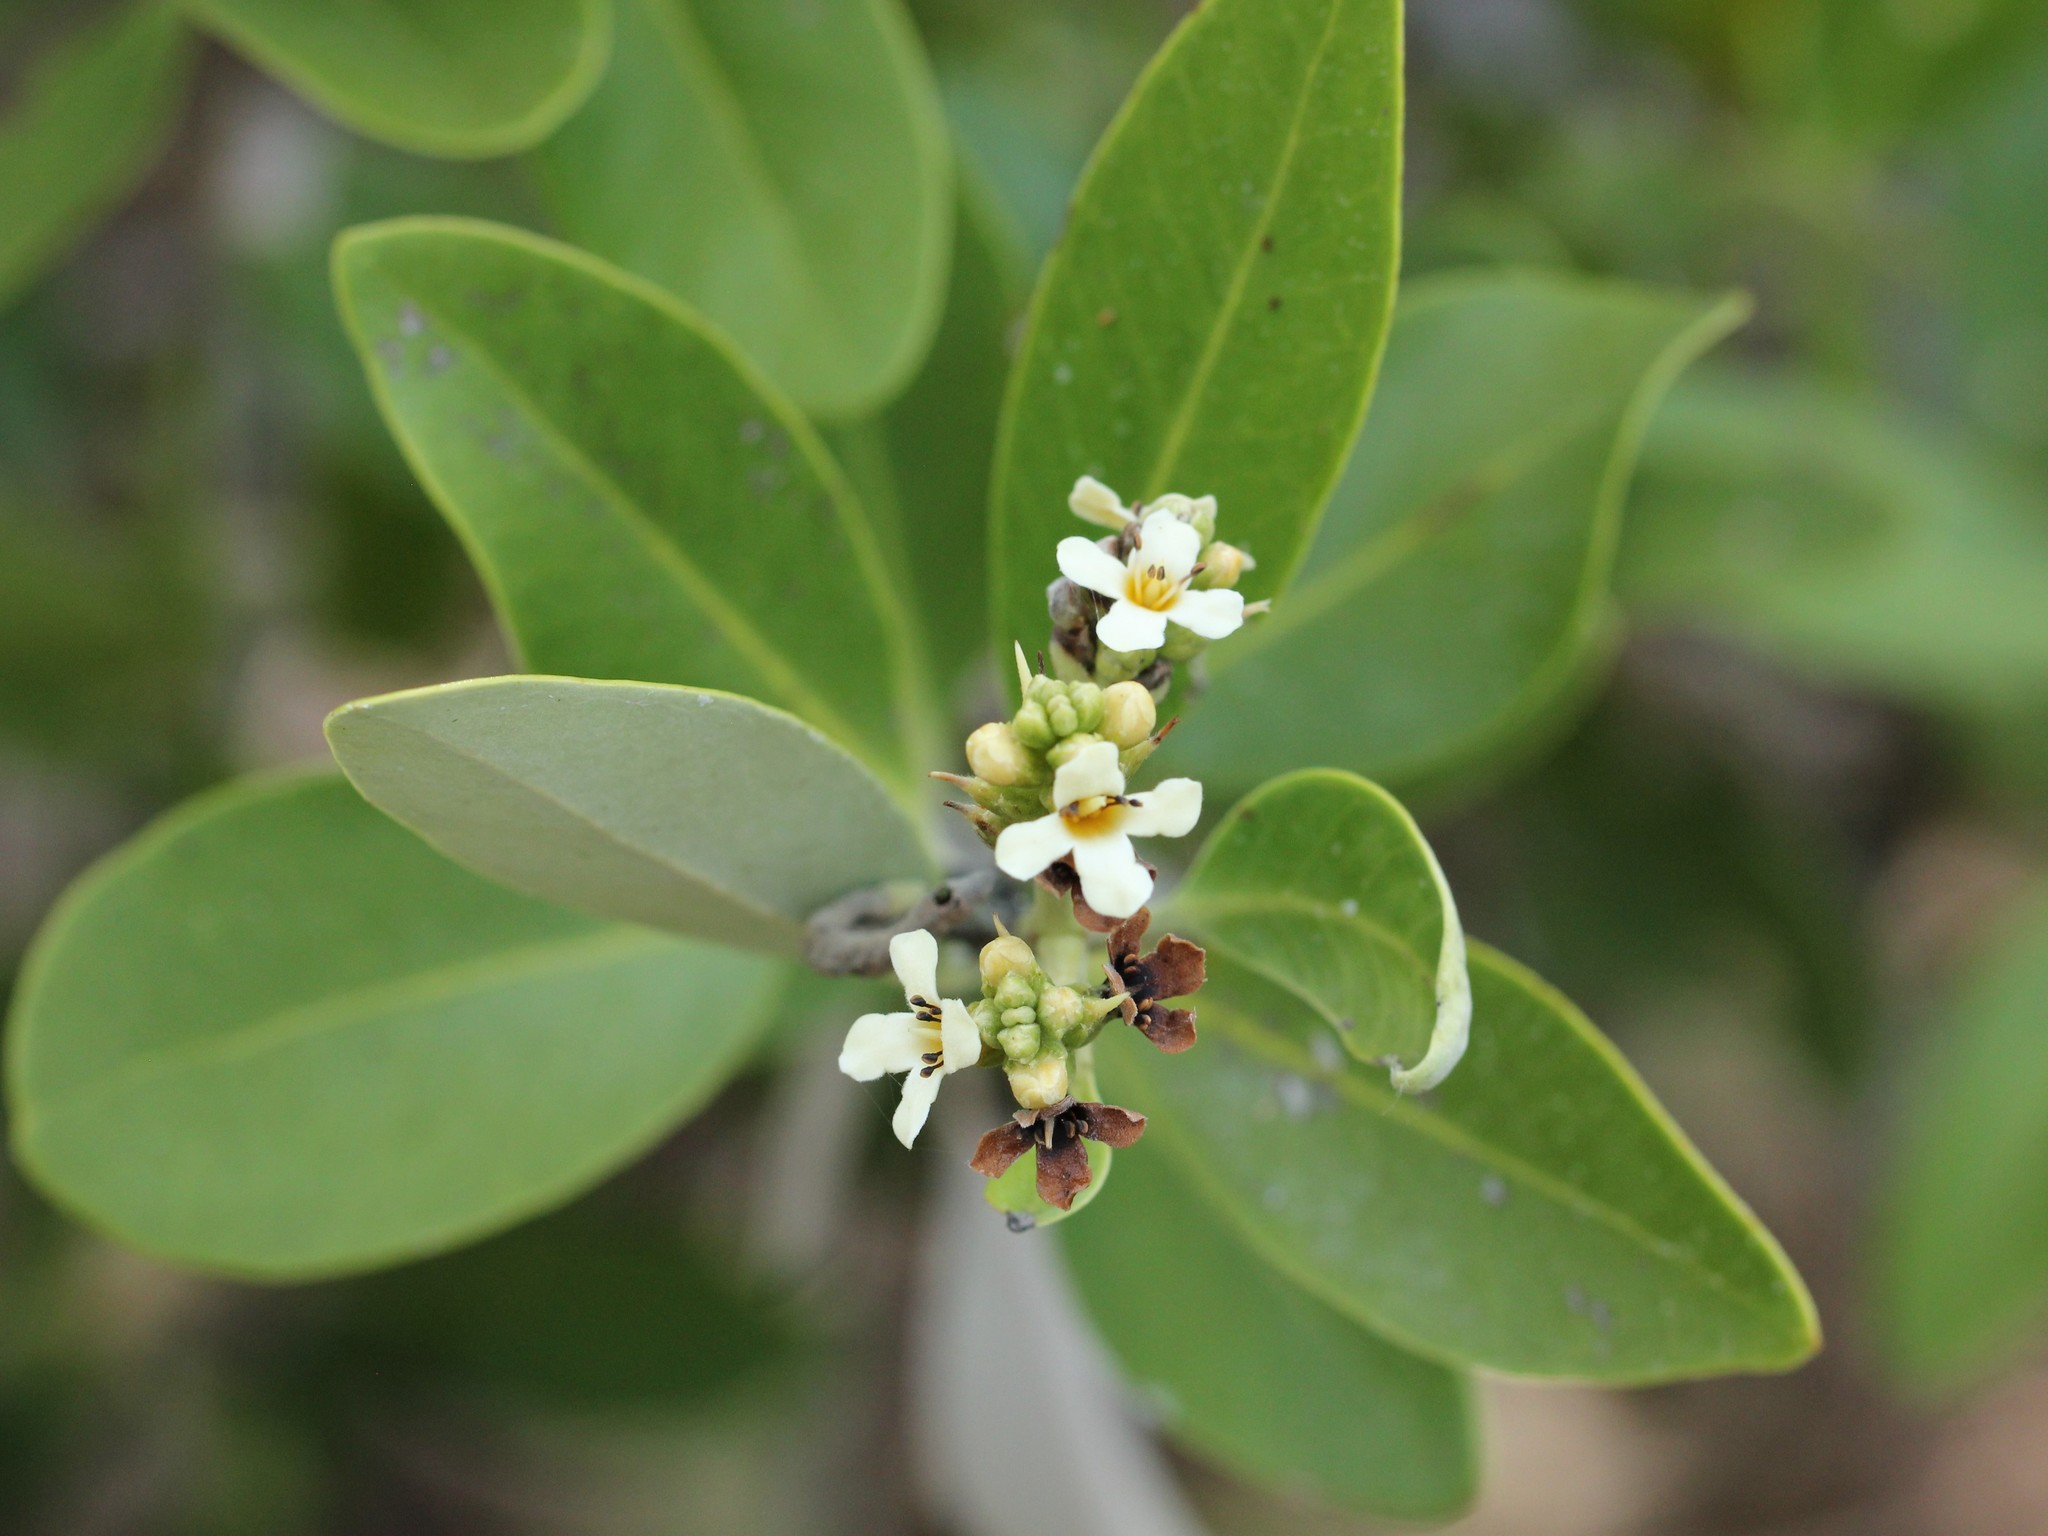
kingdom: Plantae
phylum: Tracheophyta
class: Magnoliopsida
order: Lamiales
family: Acanthaceae
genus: Avicennia
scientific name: Avicennia germinans
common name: Black mangrove
